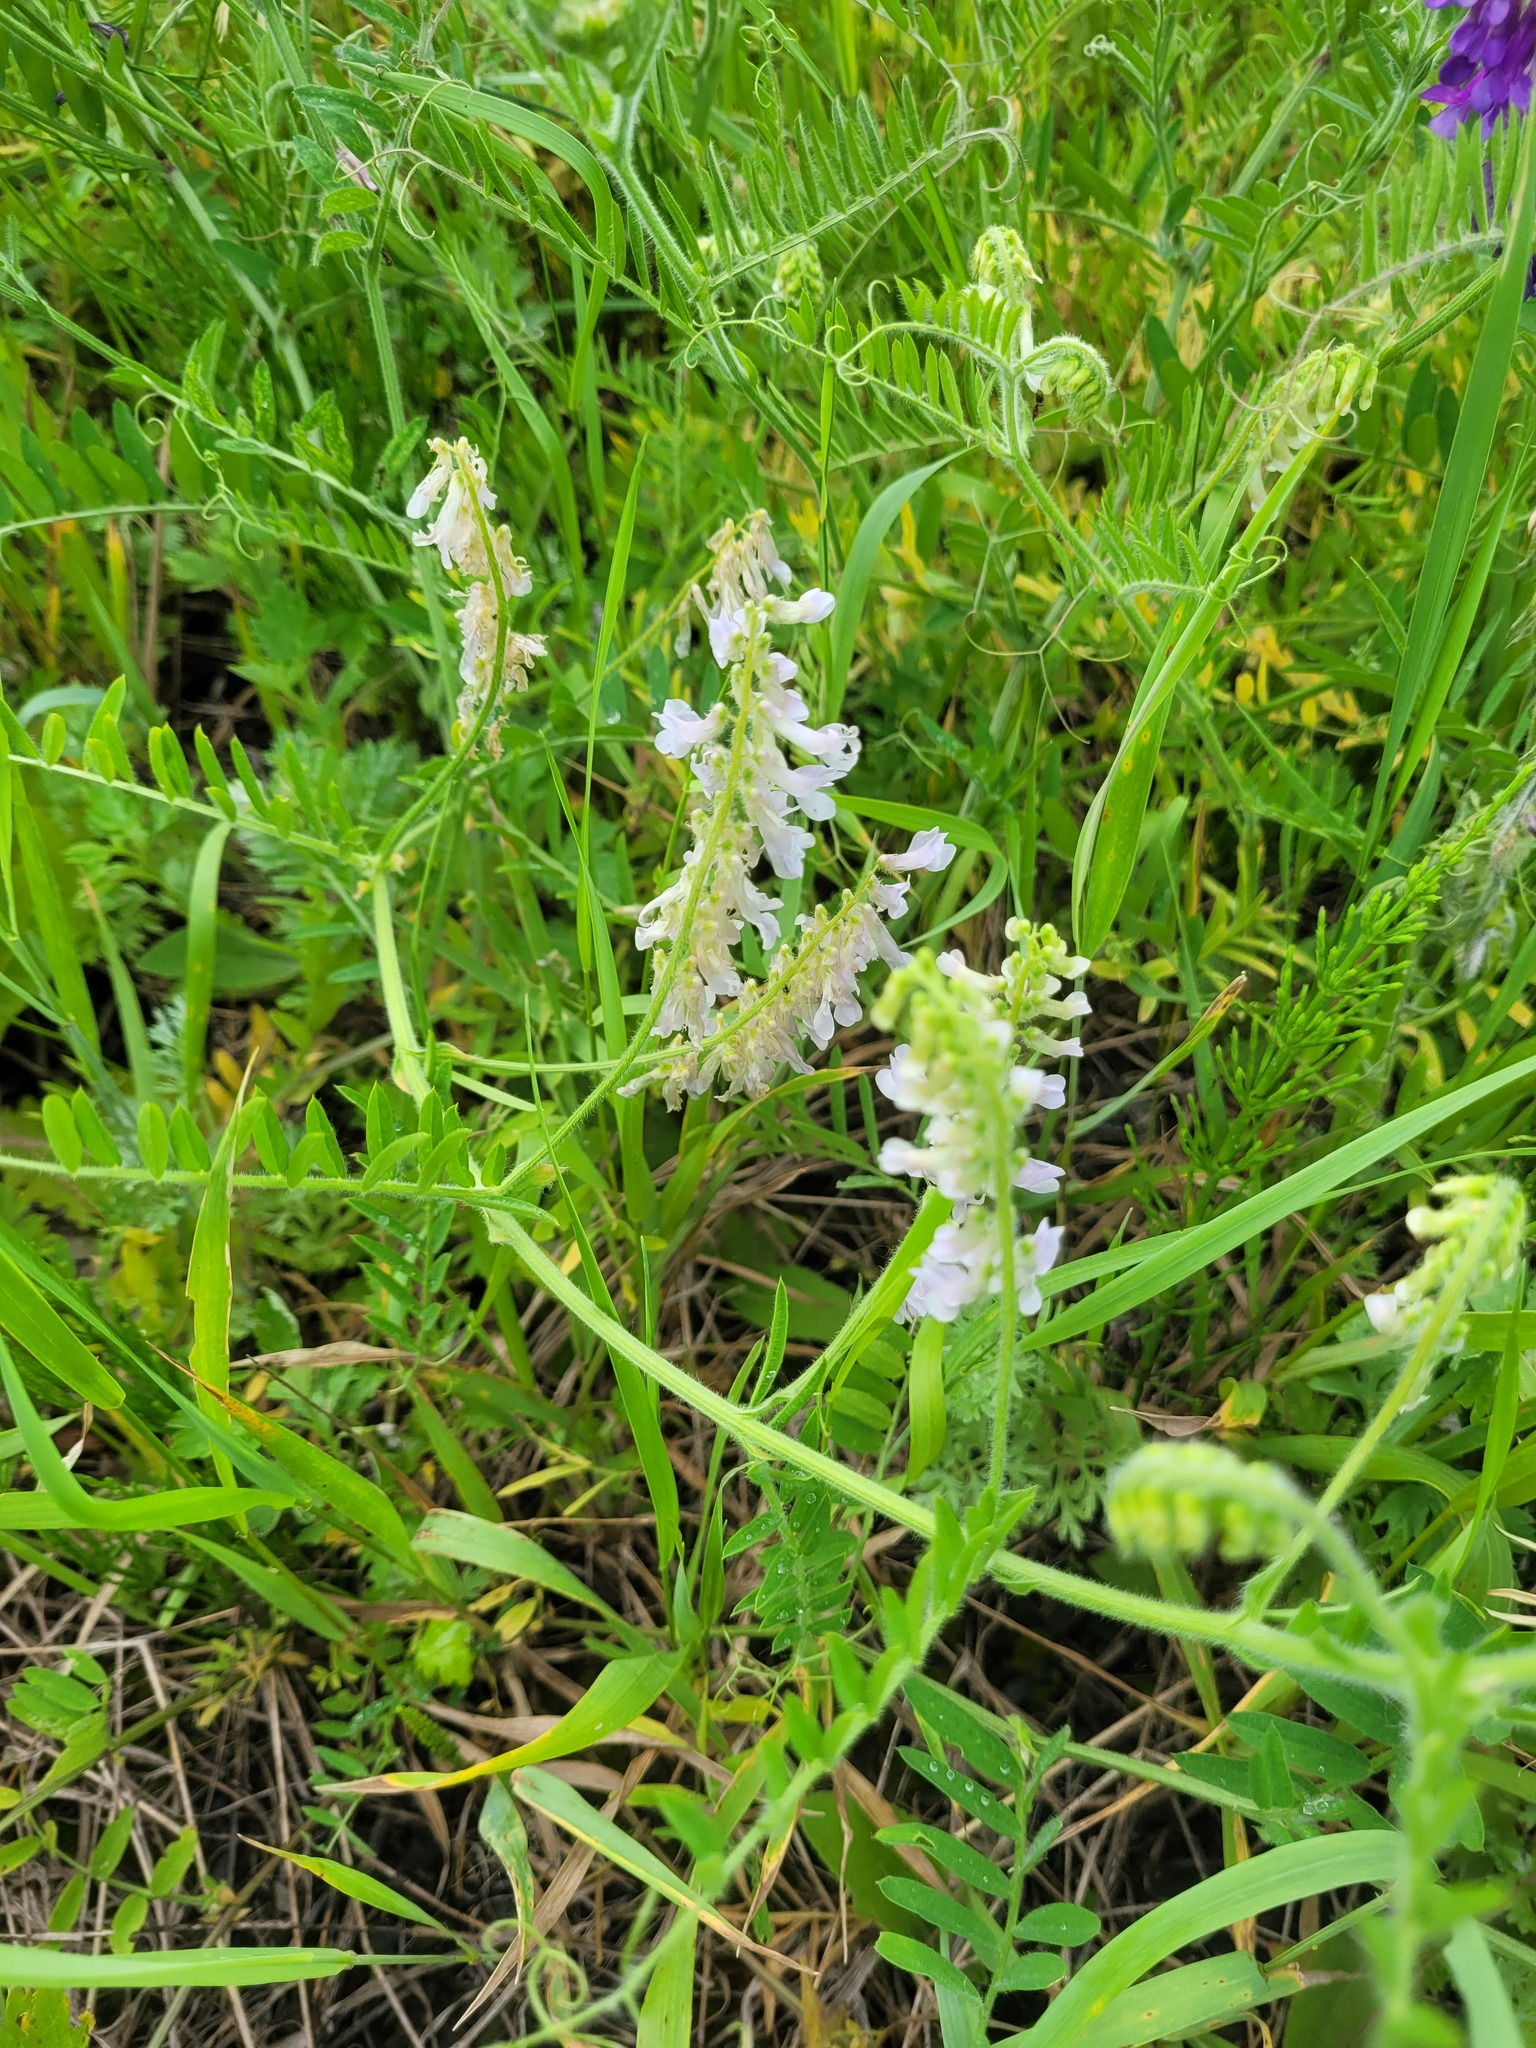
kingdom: Plantae
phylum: Tracheophyta
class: Magnoliopsida
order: Fabales
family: Fabaceae
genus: Vicia
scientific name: Vicia villosa
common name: Fodder vetch
